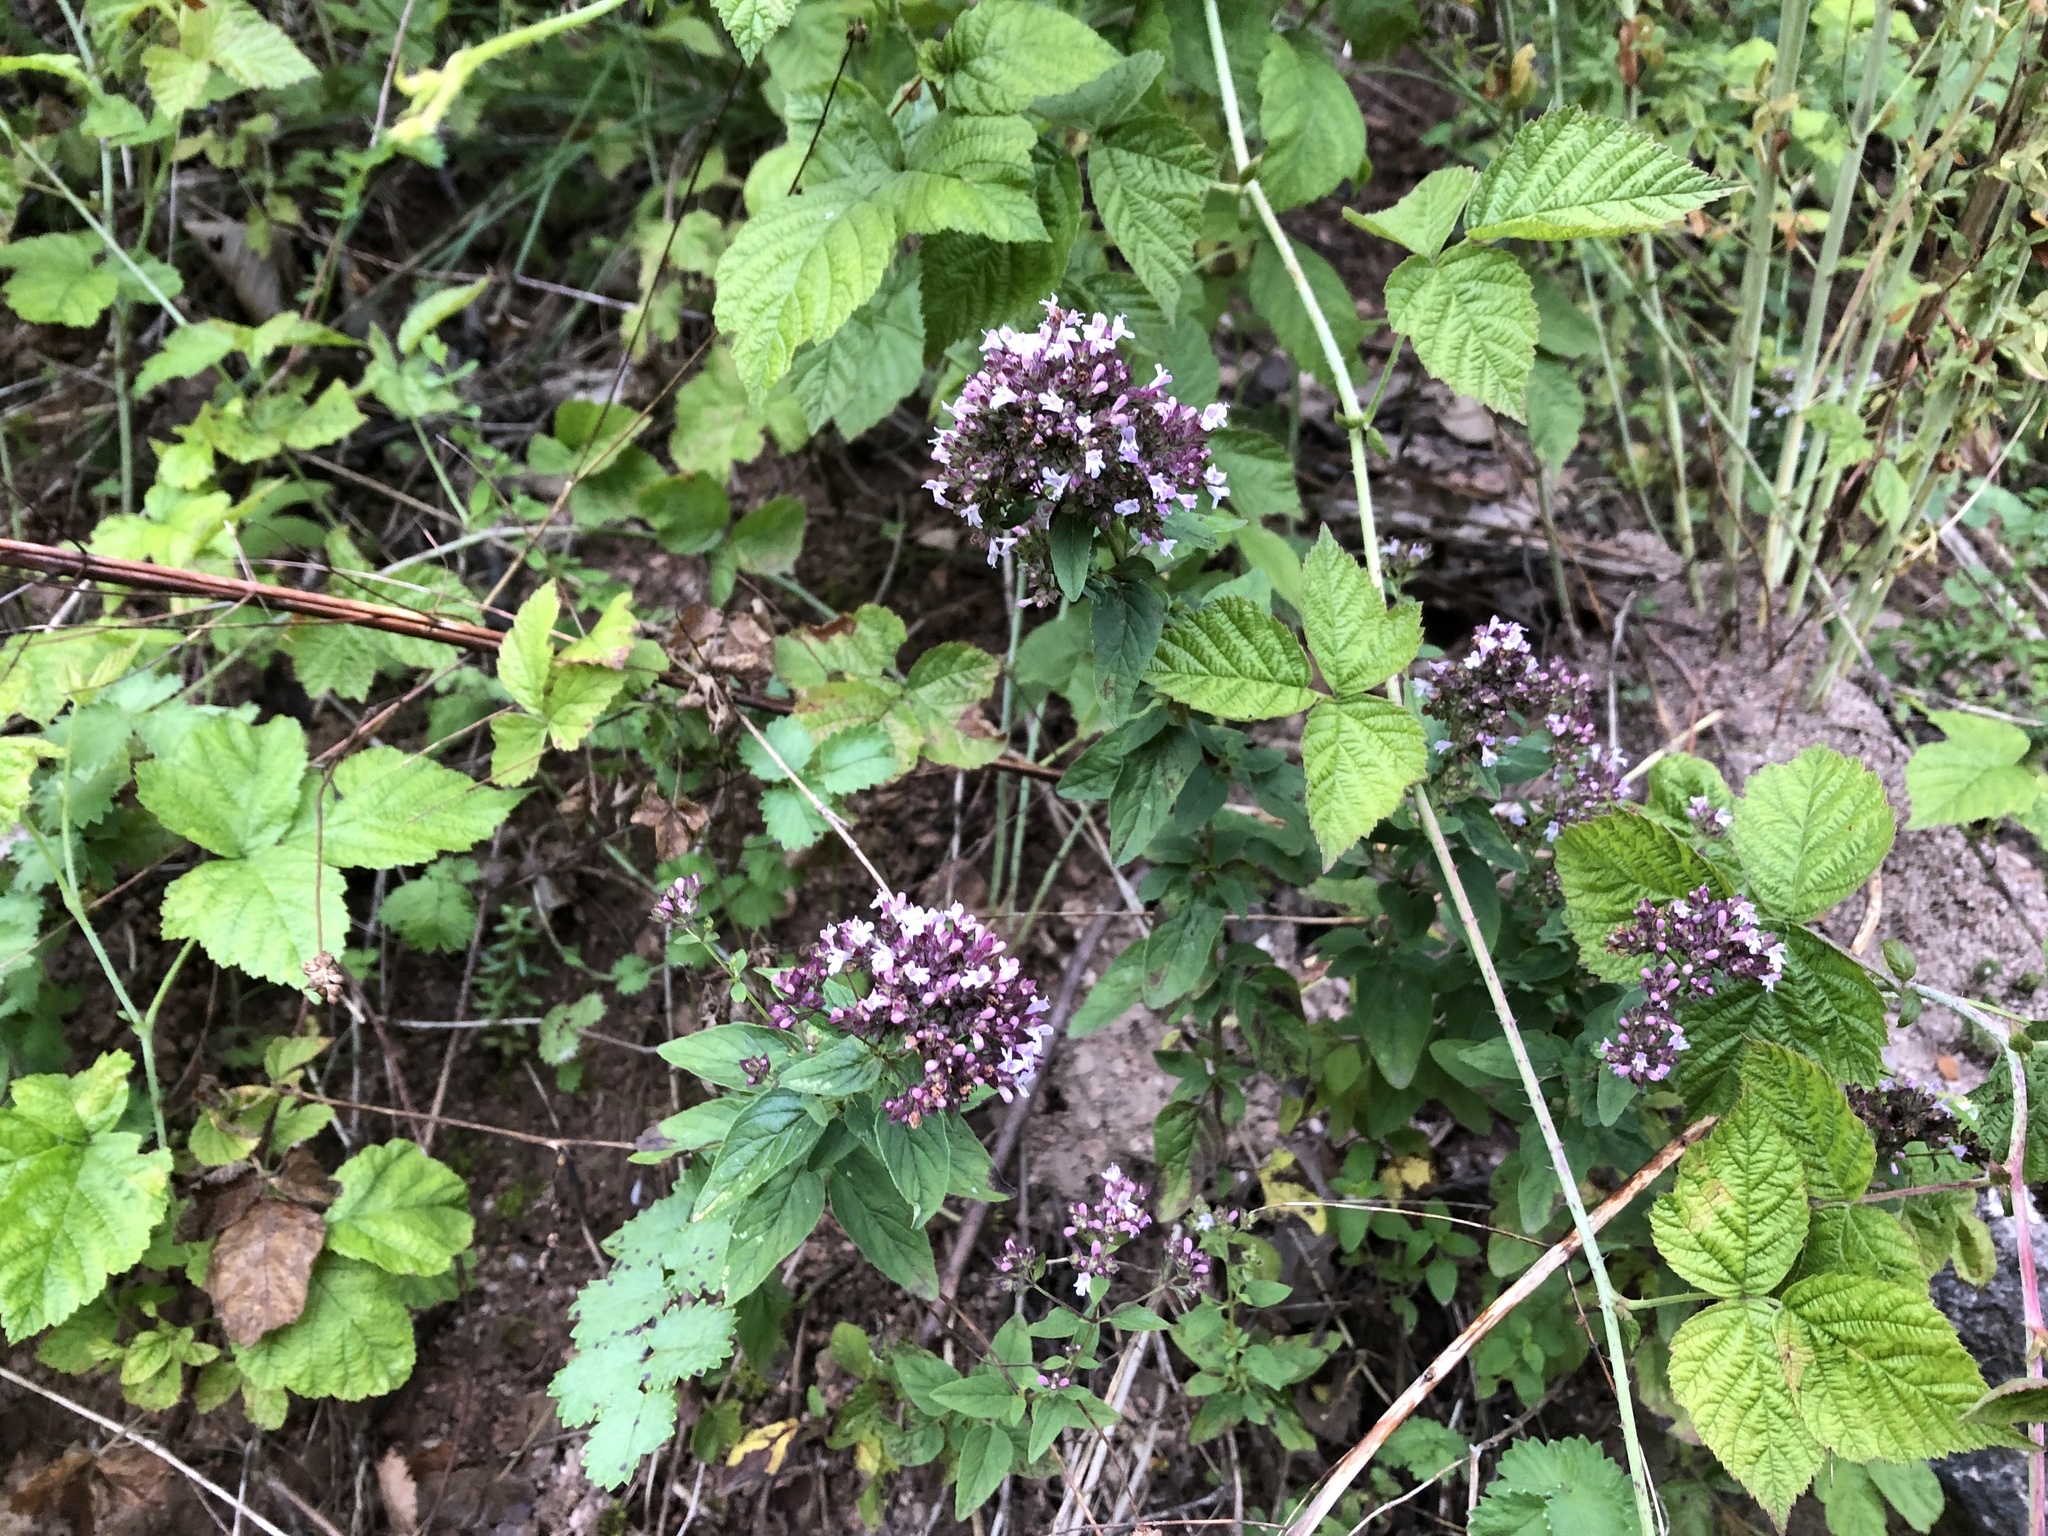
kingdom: Plantae
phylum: Tracheophyta
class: Magnoliopsida
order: Lamiales
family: Lamiaceae
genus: Origanum
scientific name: Origanum vulgare
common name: Wild marjoram
